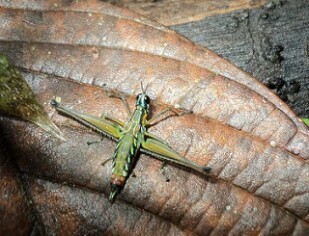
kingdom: Animalia
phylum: Arthropoda
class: Insecta
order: Orthoptera
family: Eumastacidae
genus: Paramastax
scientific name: Paramastax poecilosoma
